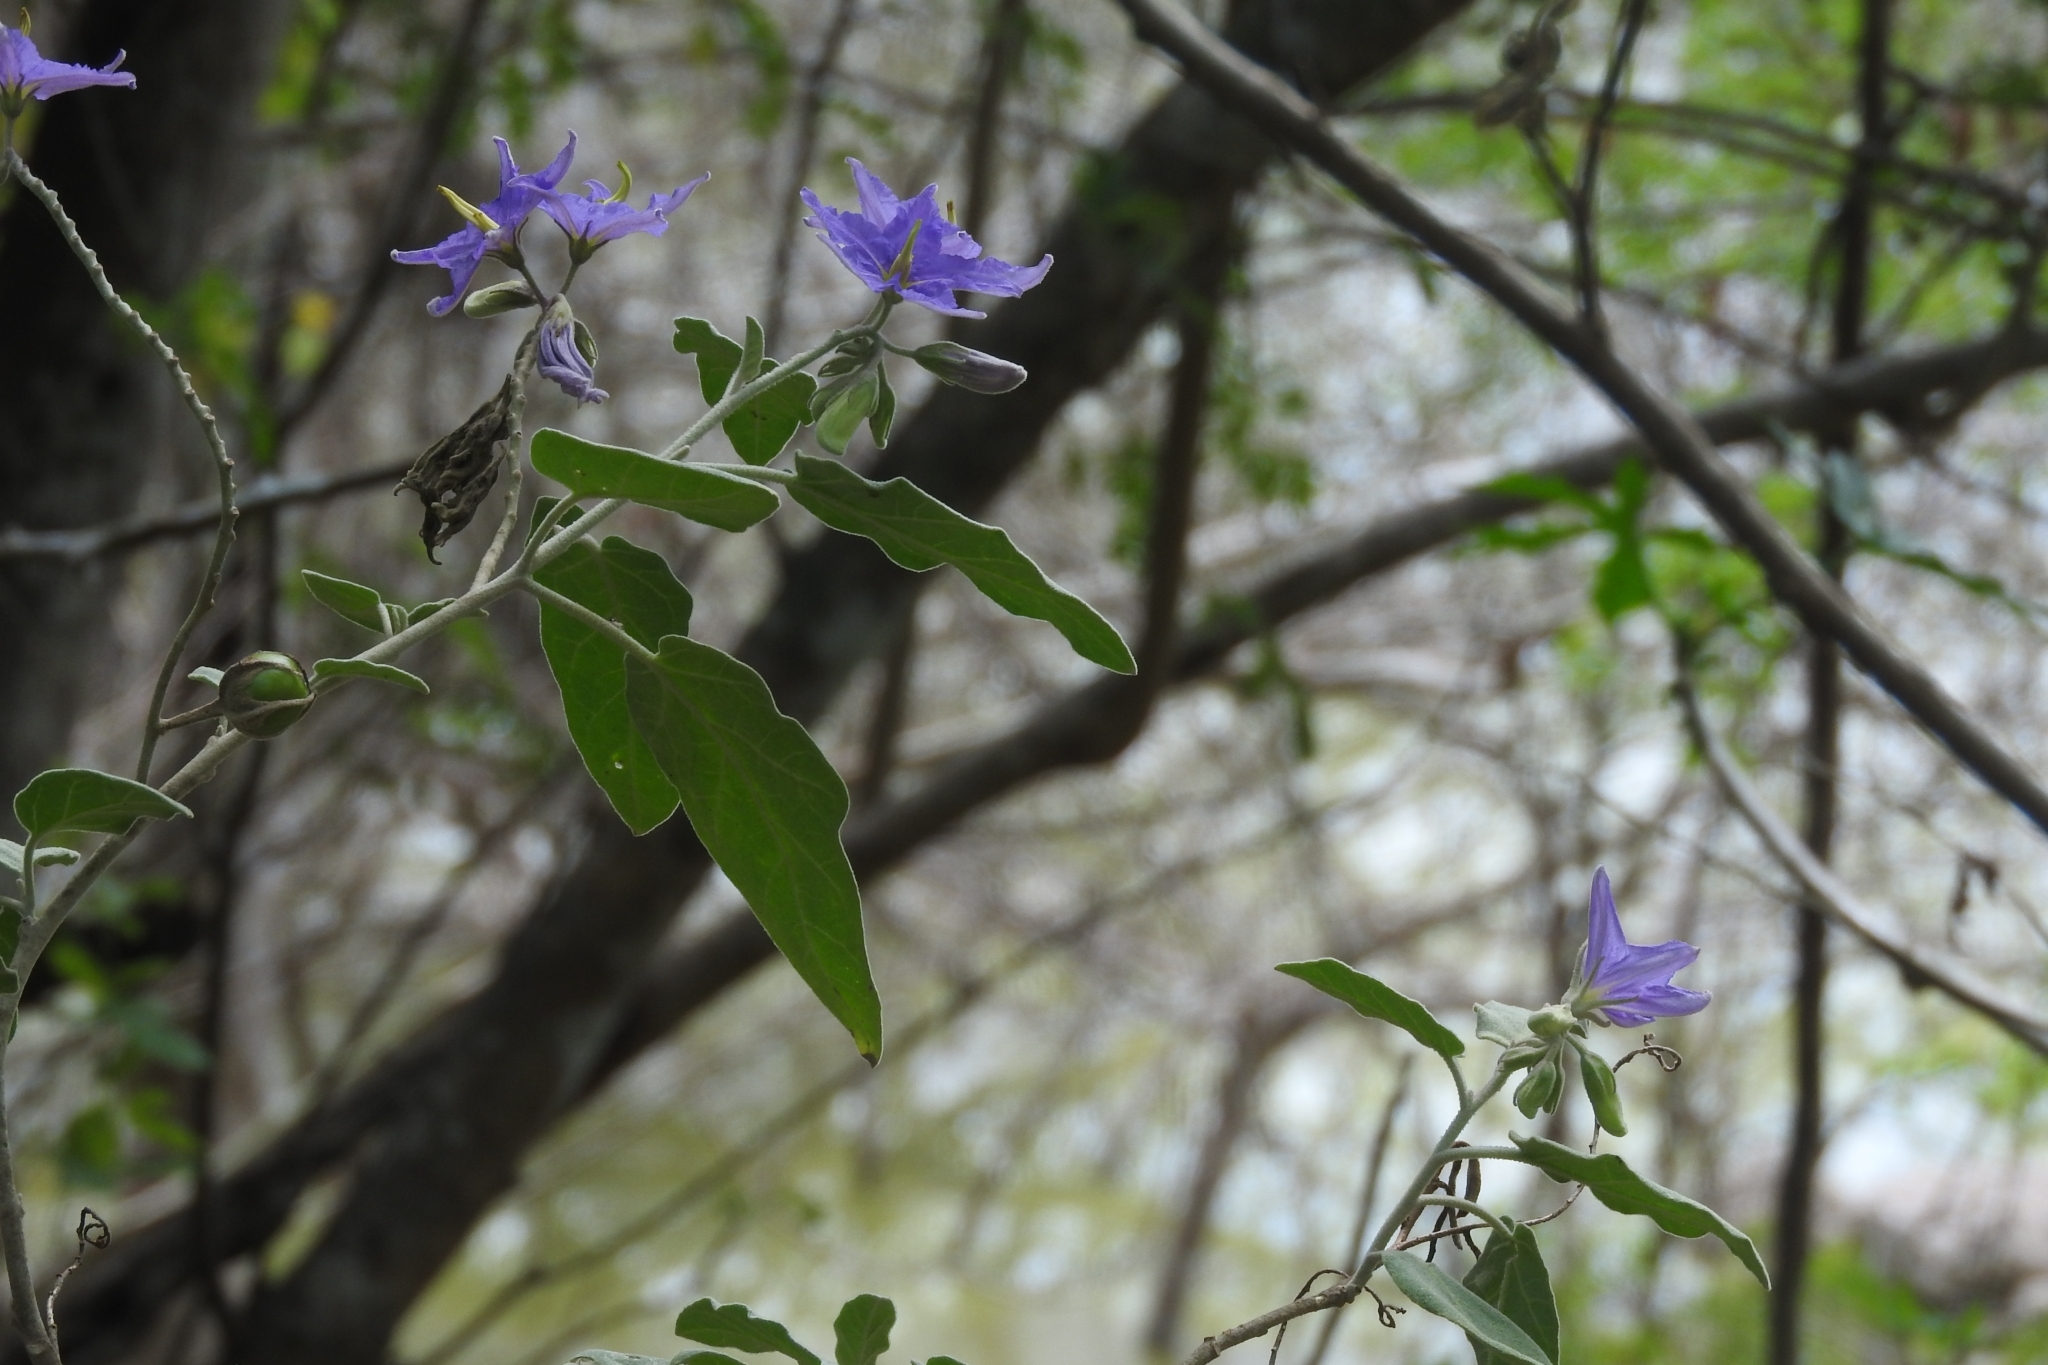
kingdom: Plantae
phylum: Tracheophyta
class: Magnoliopsida
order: Solanales
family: Solanaceae
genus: Solanum
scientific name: Solanum houstonii
